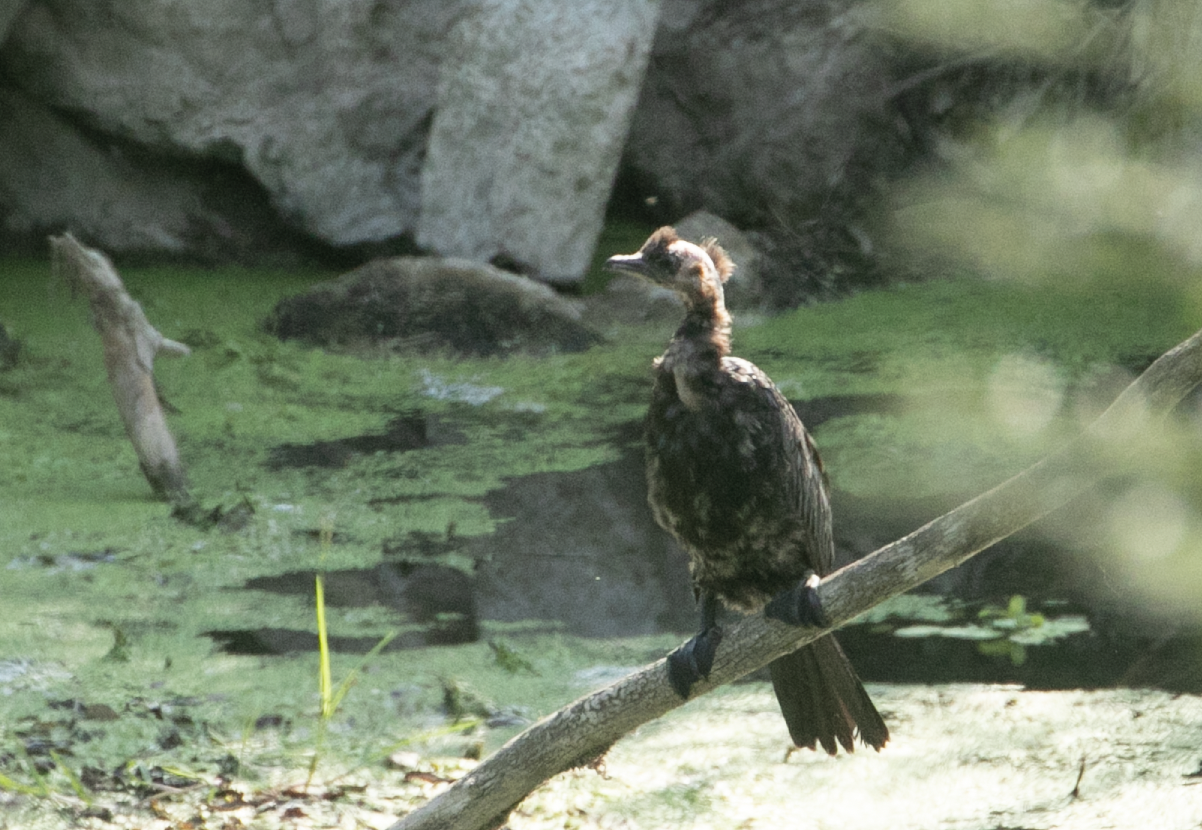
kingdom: Animalia
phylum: Chordata
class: Aves
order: Suliformes
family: Phalacrocoracidae
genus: Microcarbo
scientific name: Microcarbo pygmaeus
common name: Pygmy cormorant
